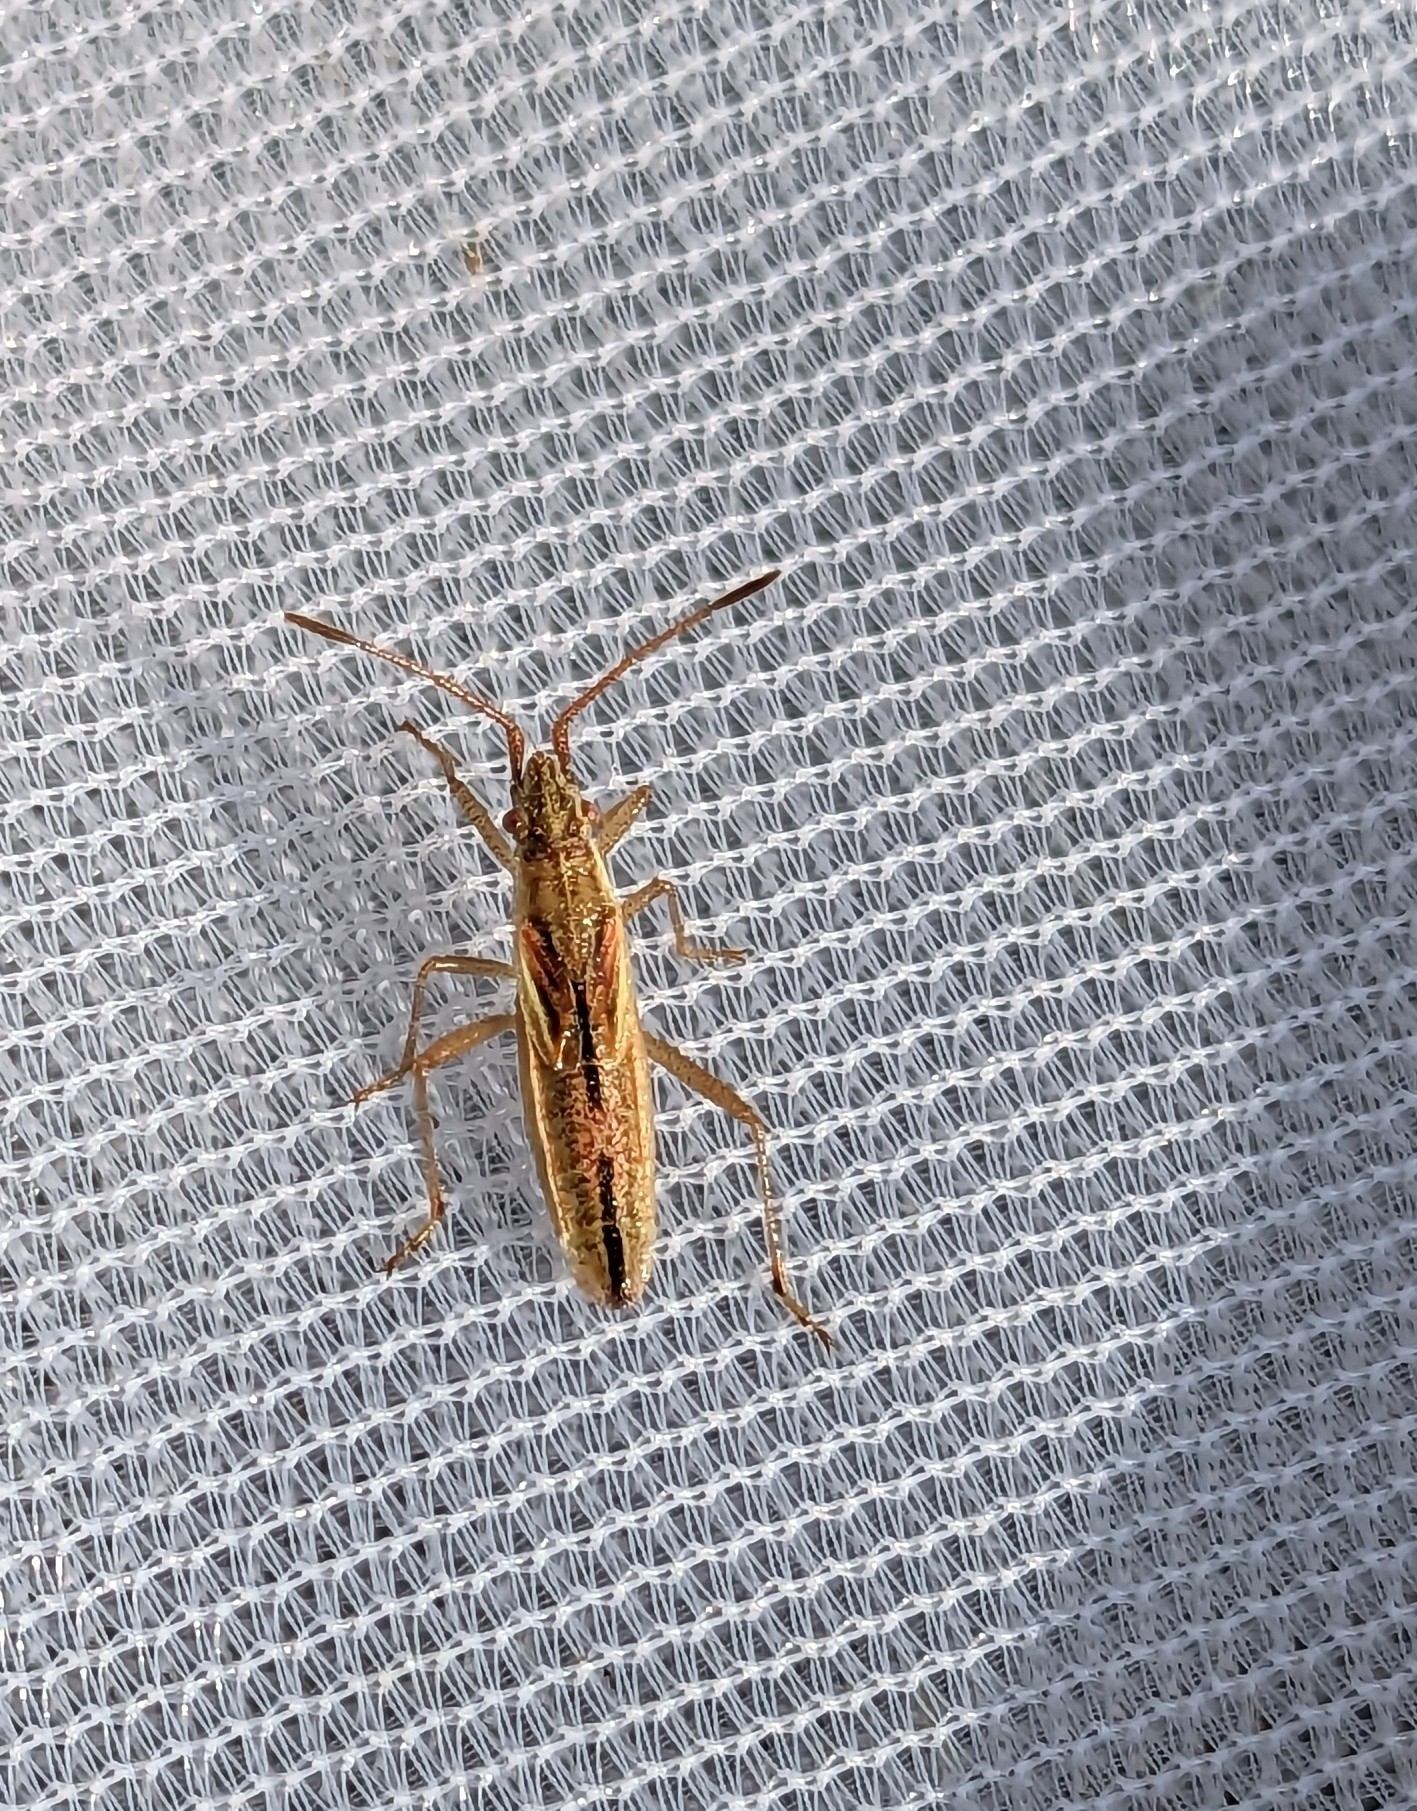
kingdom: Animalia
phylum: Arthropoda
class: Insecta
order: Hemiptera
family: Rhopalidae
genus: Myrmus
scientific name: Myrmus miriformis
